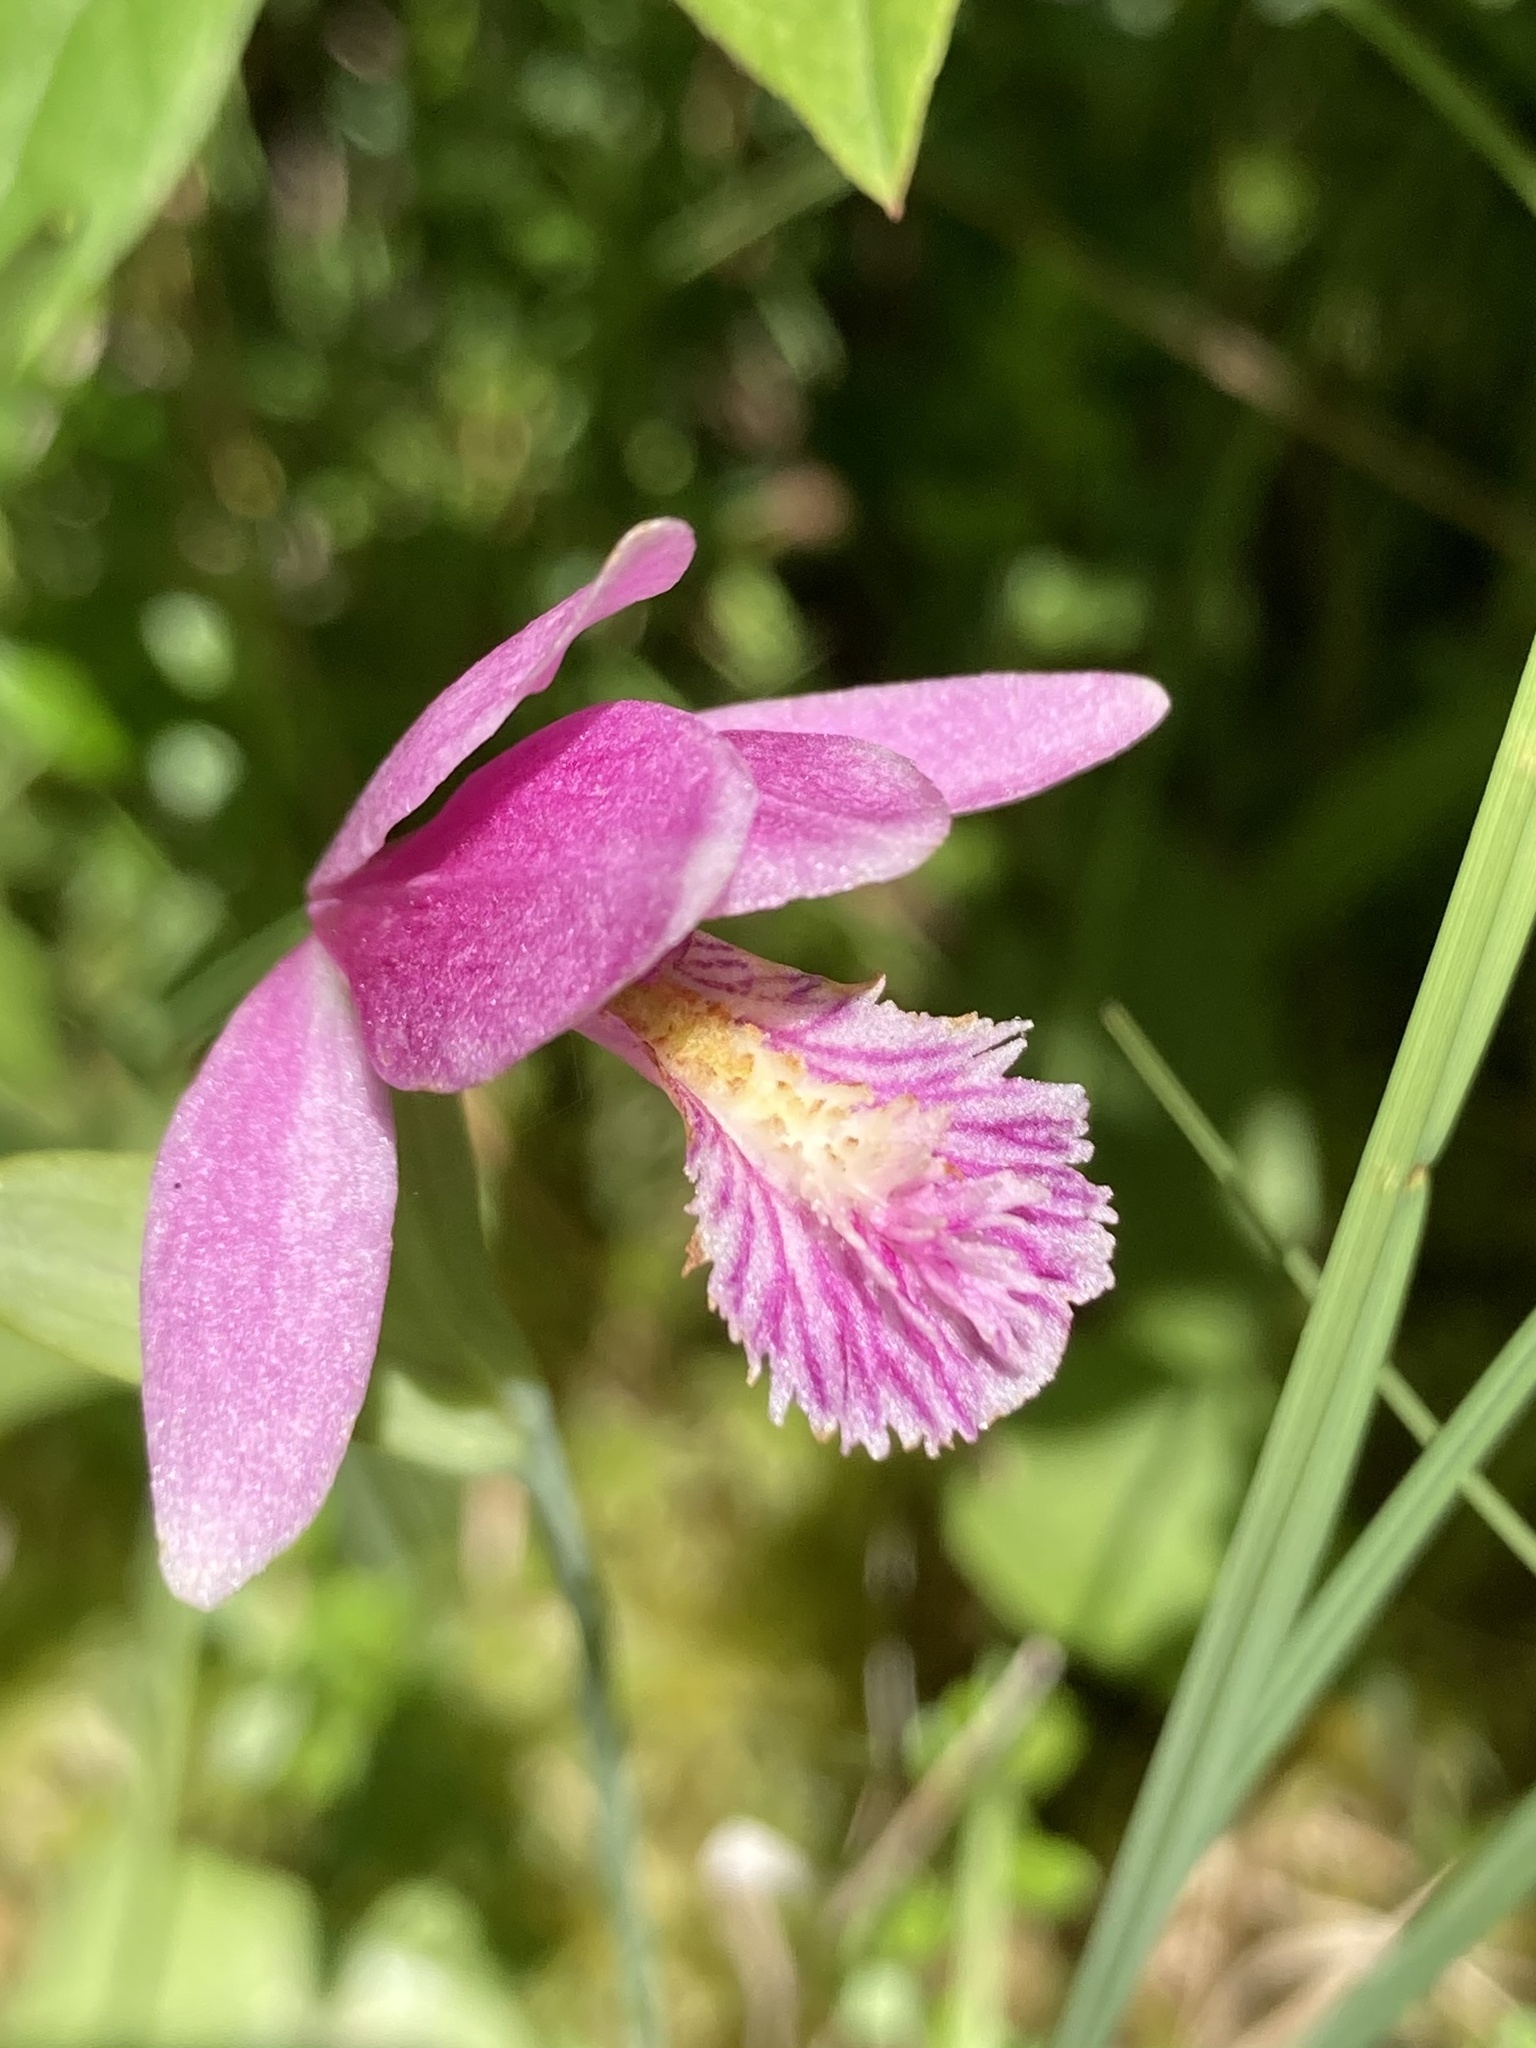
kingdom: Plantae
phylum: Tracheophyta
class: Liliopsida
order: Asparagales
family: Orchidaceae
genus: Pogonia
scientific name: Pogonia ophioglossoides
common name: Rose pogonia
